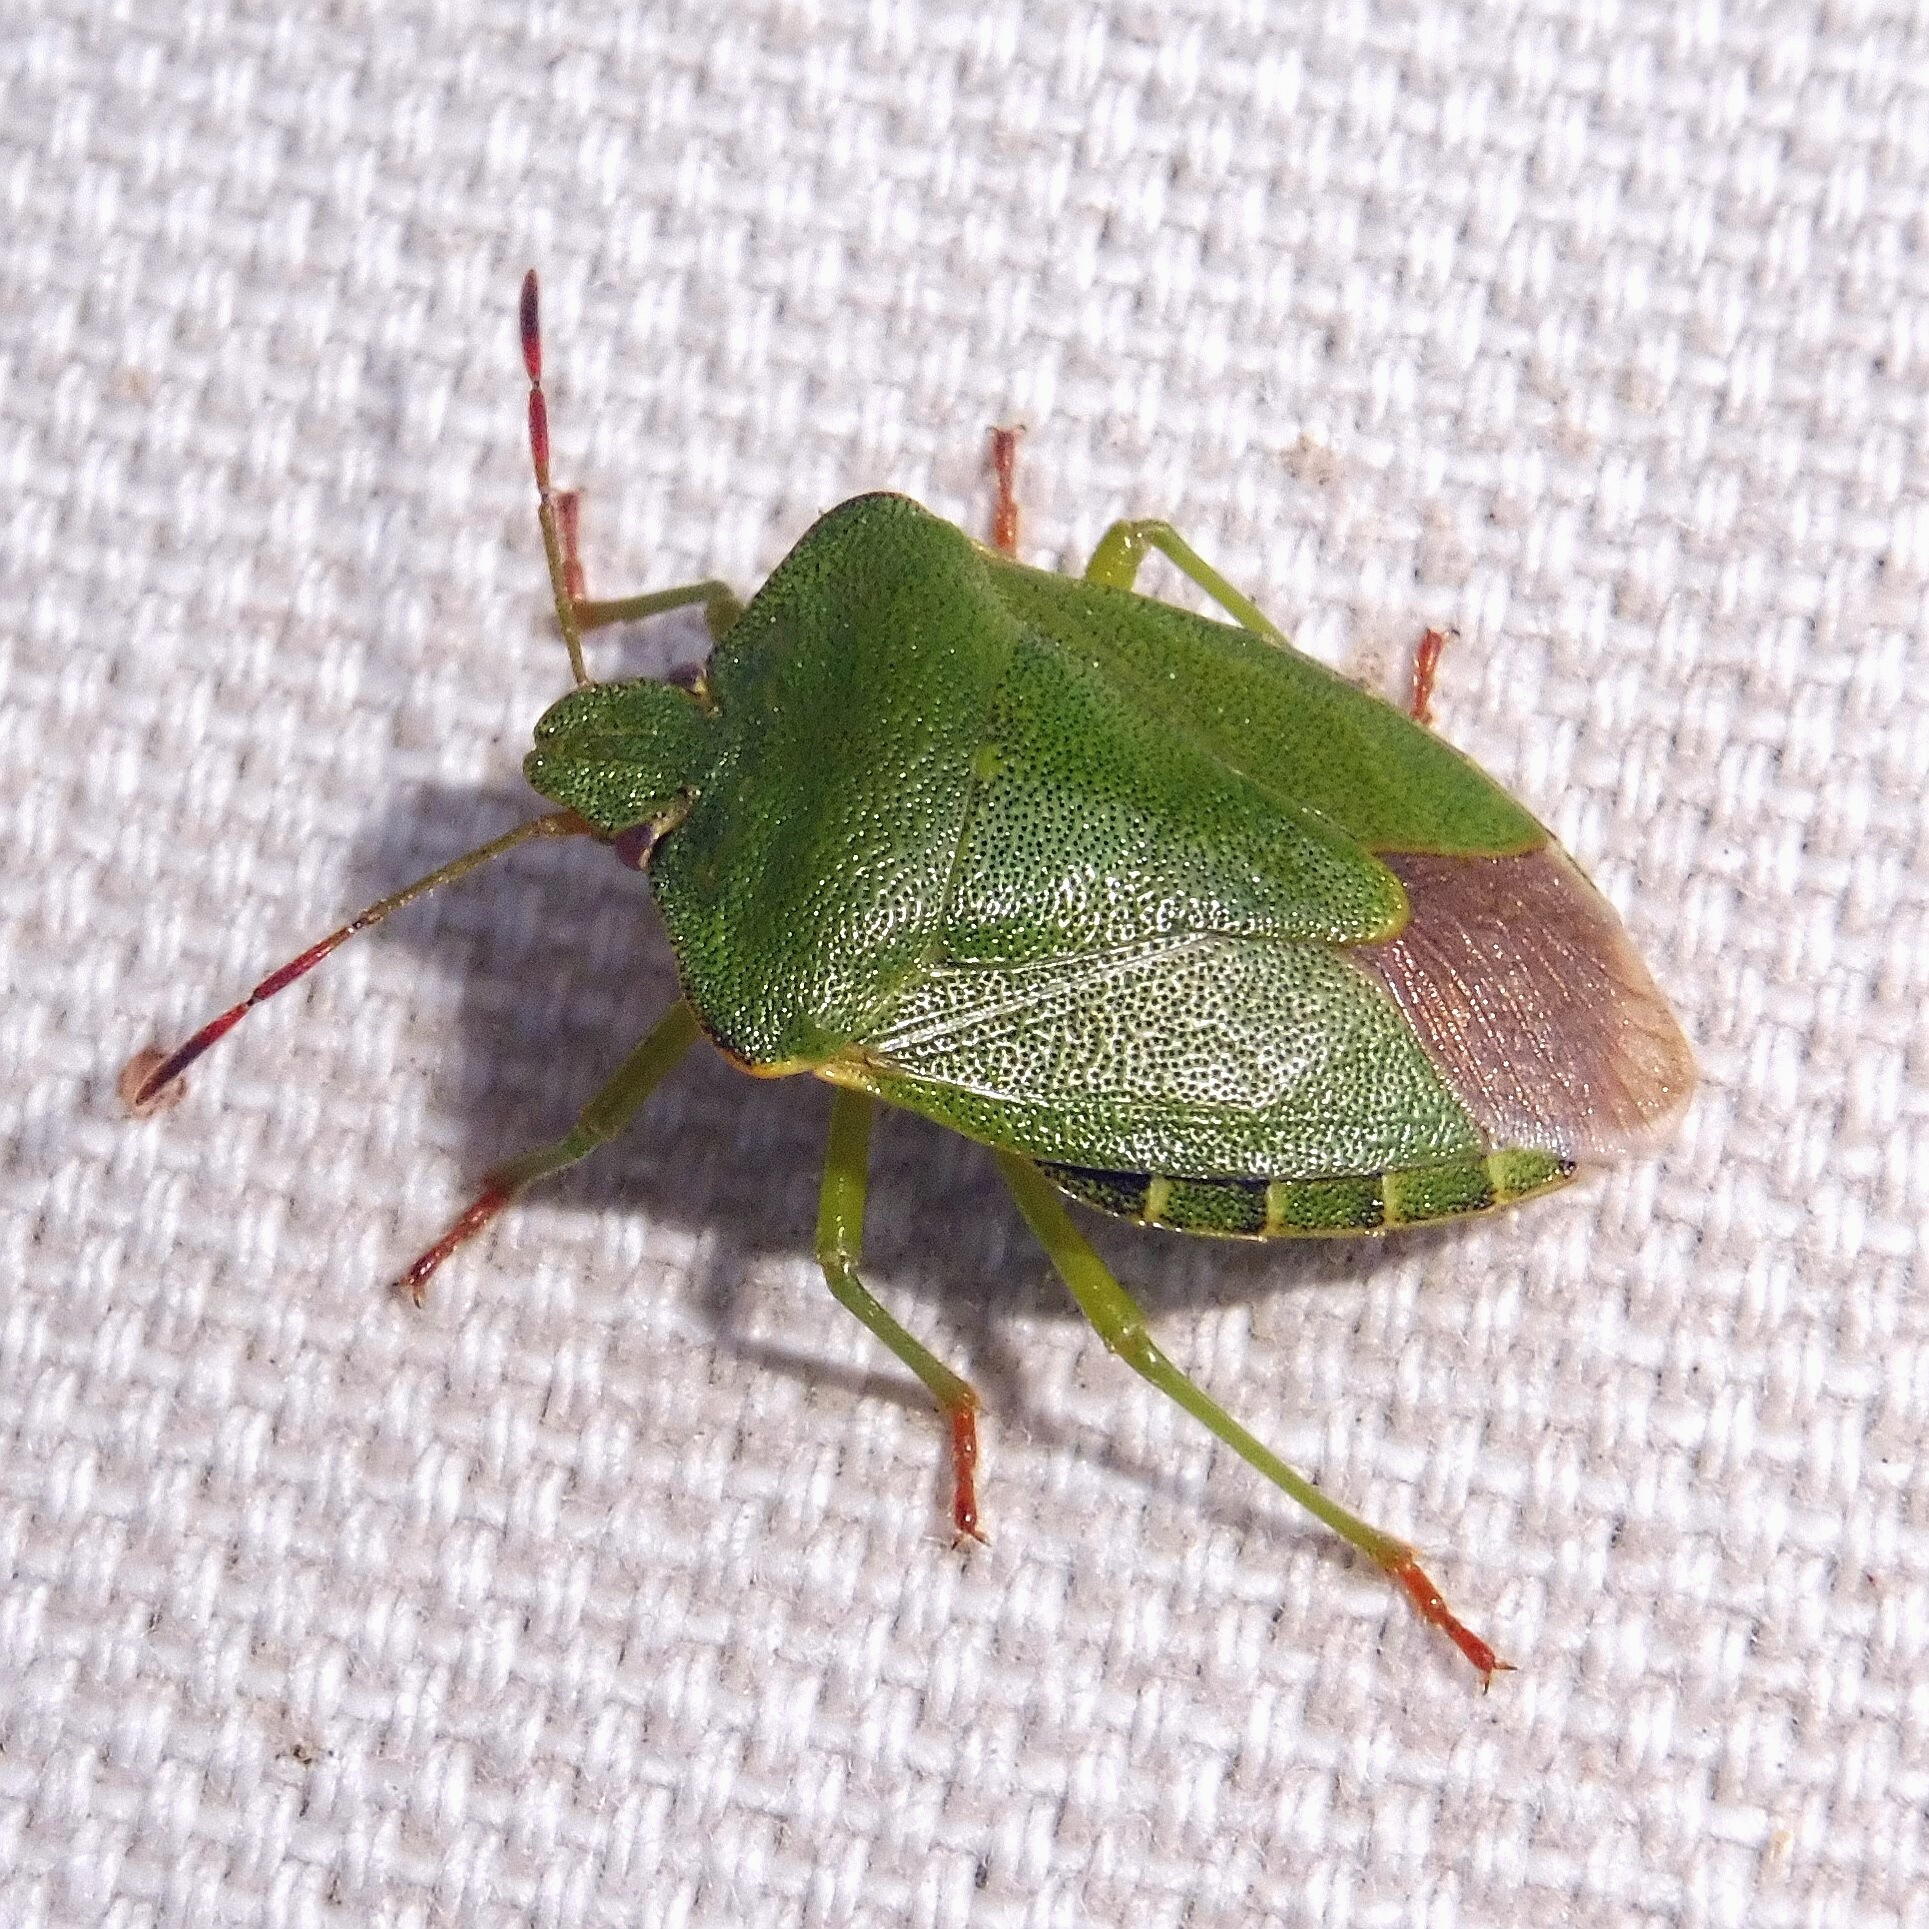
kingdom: Animalia
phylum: Arthropoda
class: Insecta
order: Hemiptera
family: Pentatomidae
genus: Palomena
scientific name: Palomena prasina
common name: Green shieldbug
